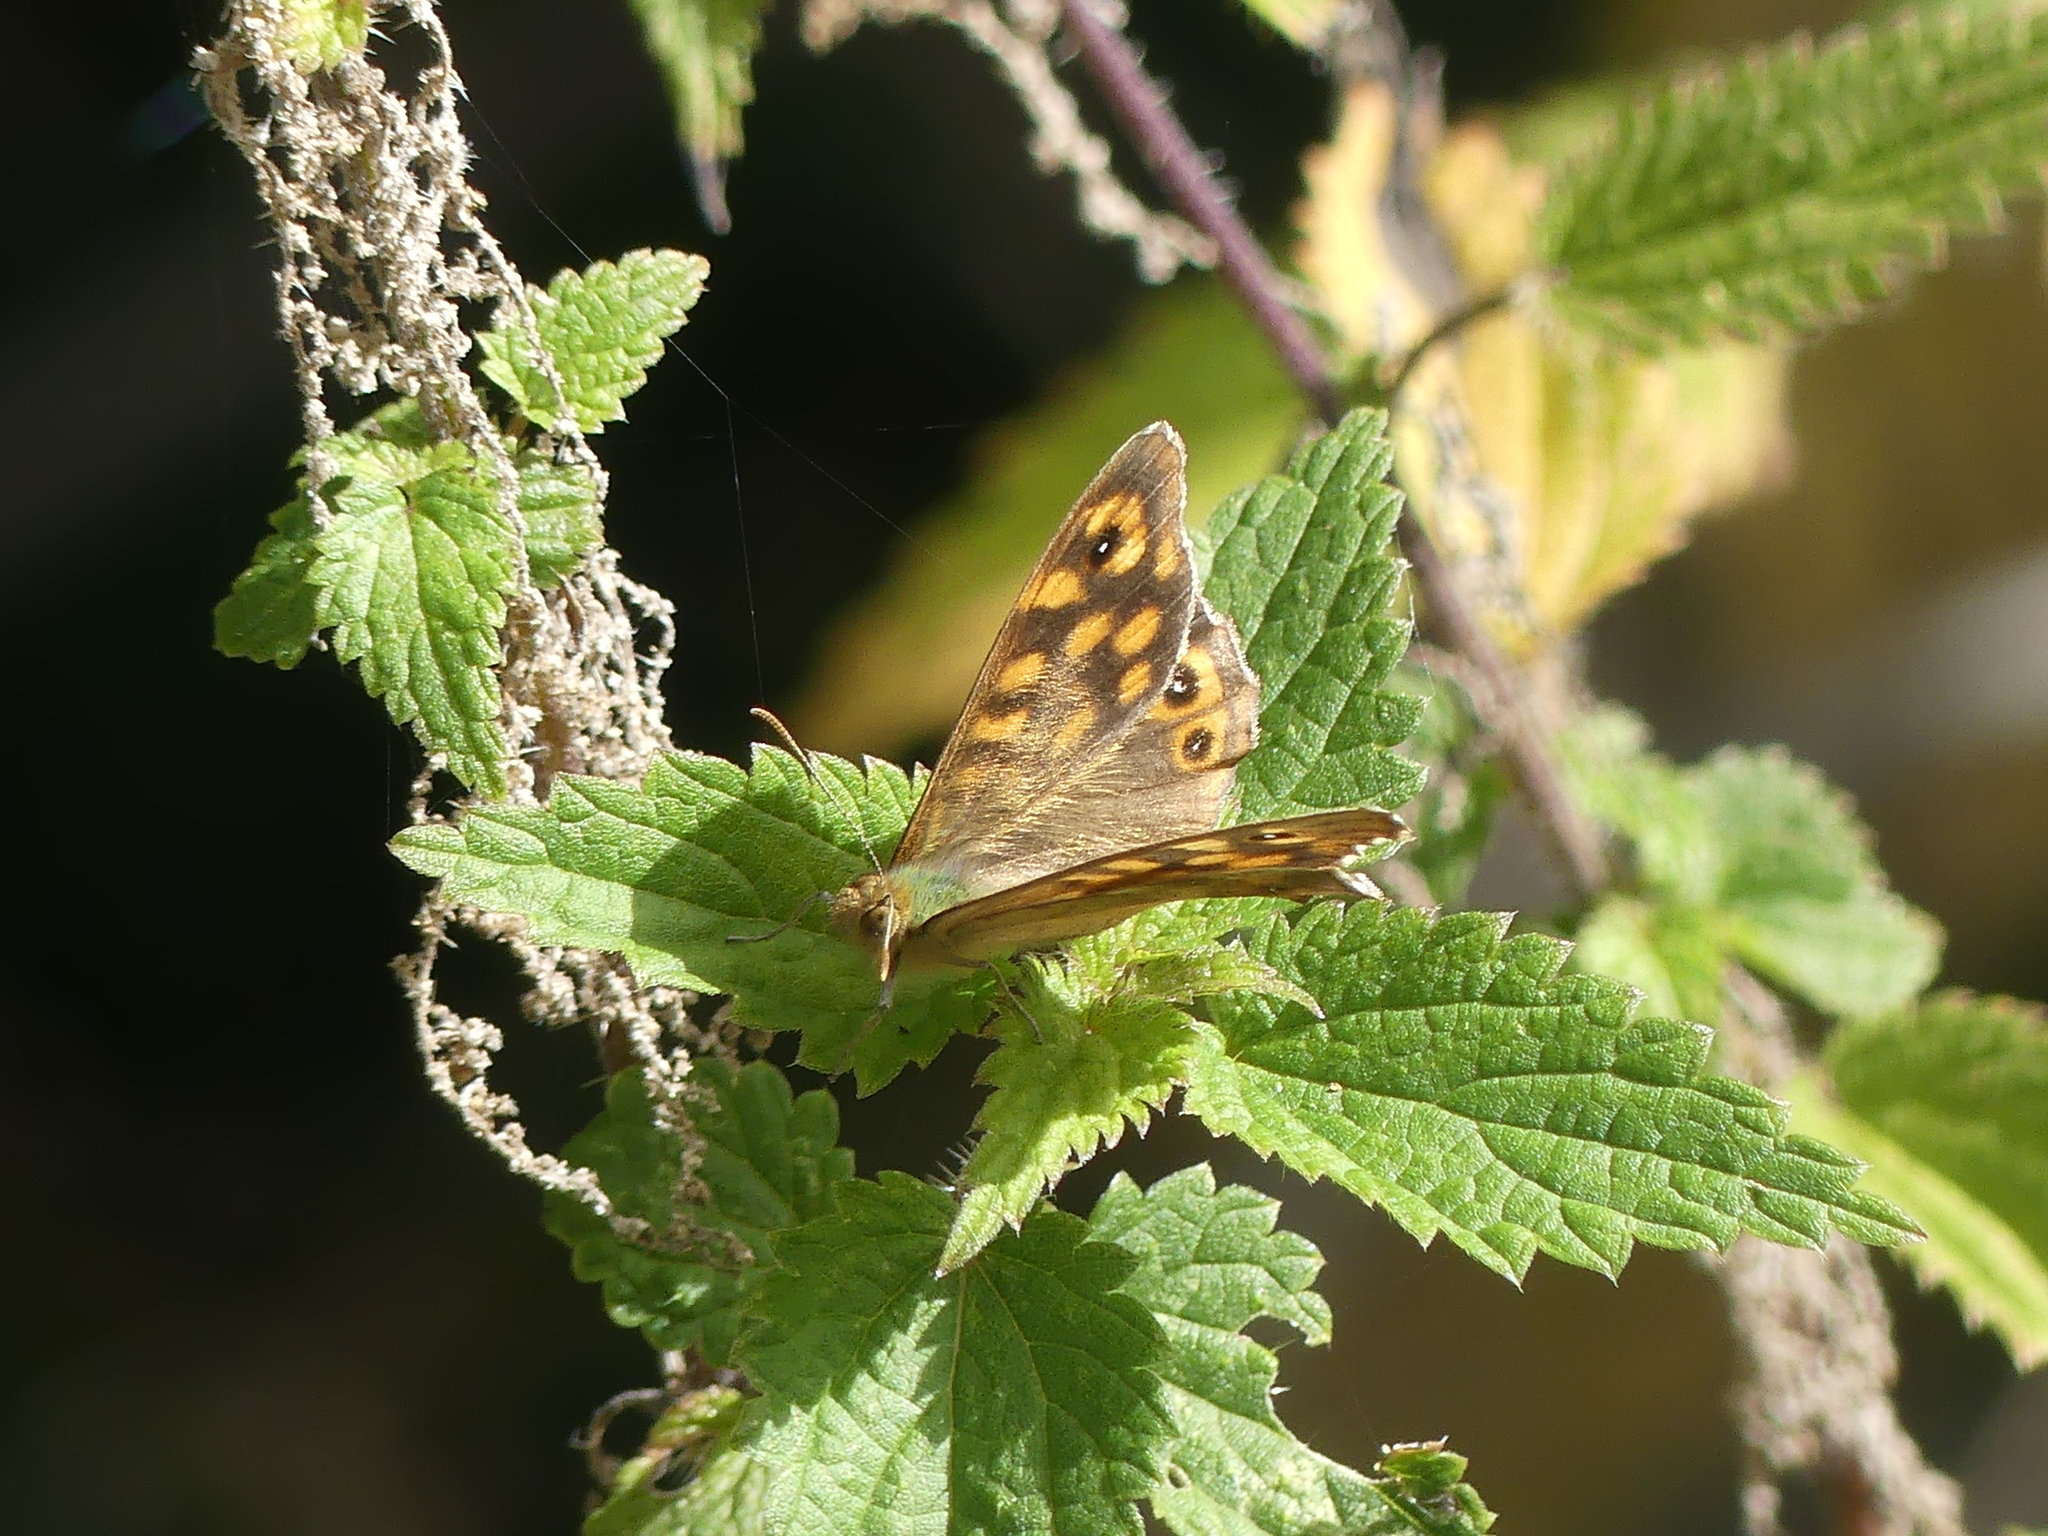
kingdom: Animalia
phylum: Arthropoda
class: Insecta
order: Lepidoptera
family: Nymphalidae
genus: Pararge
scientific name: Pararge aegeria
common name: Speckled wood
